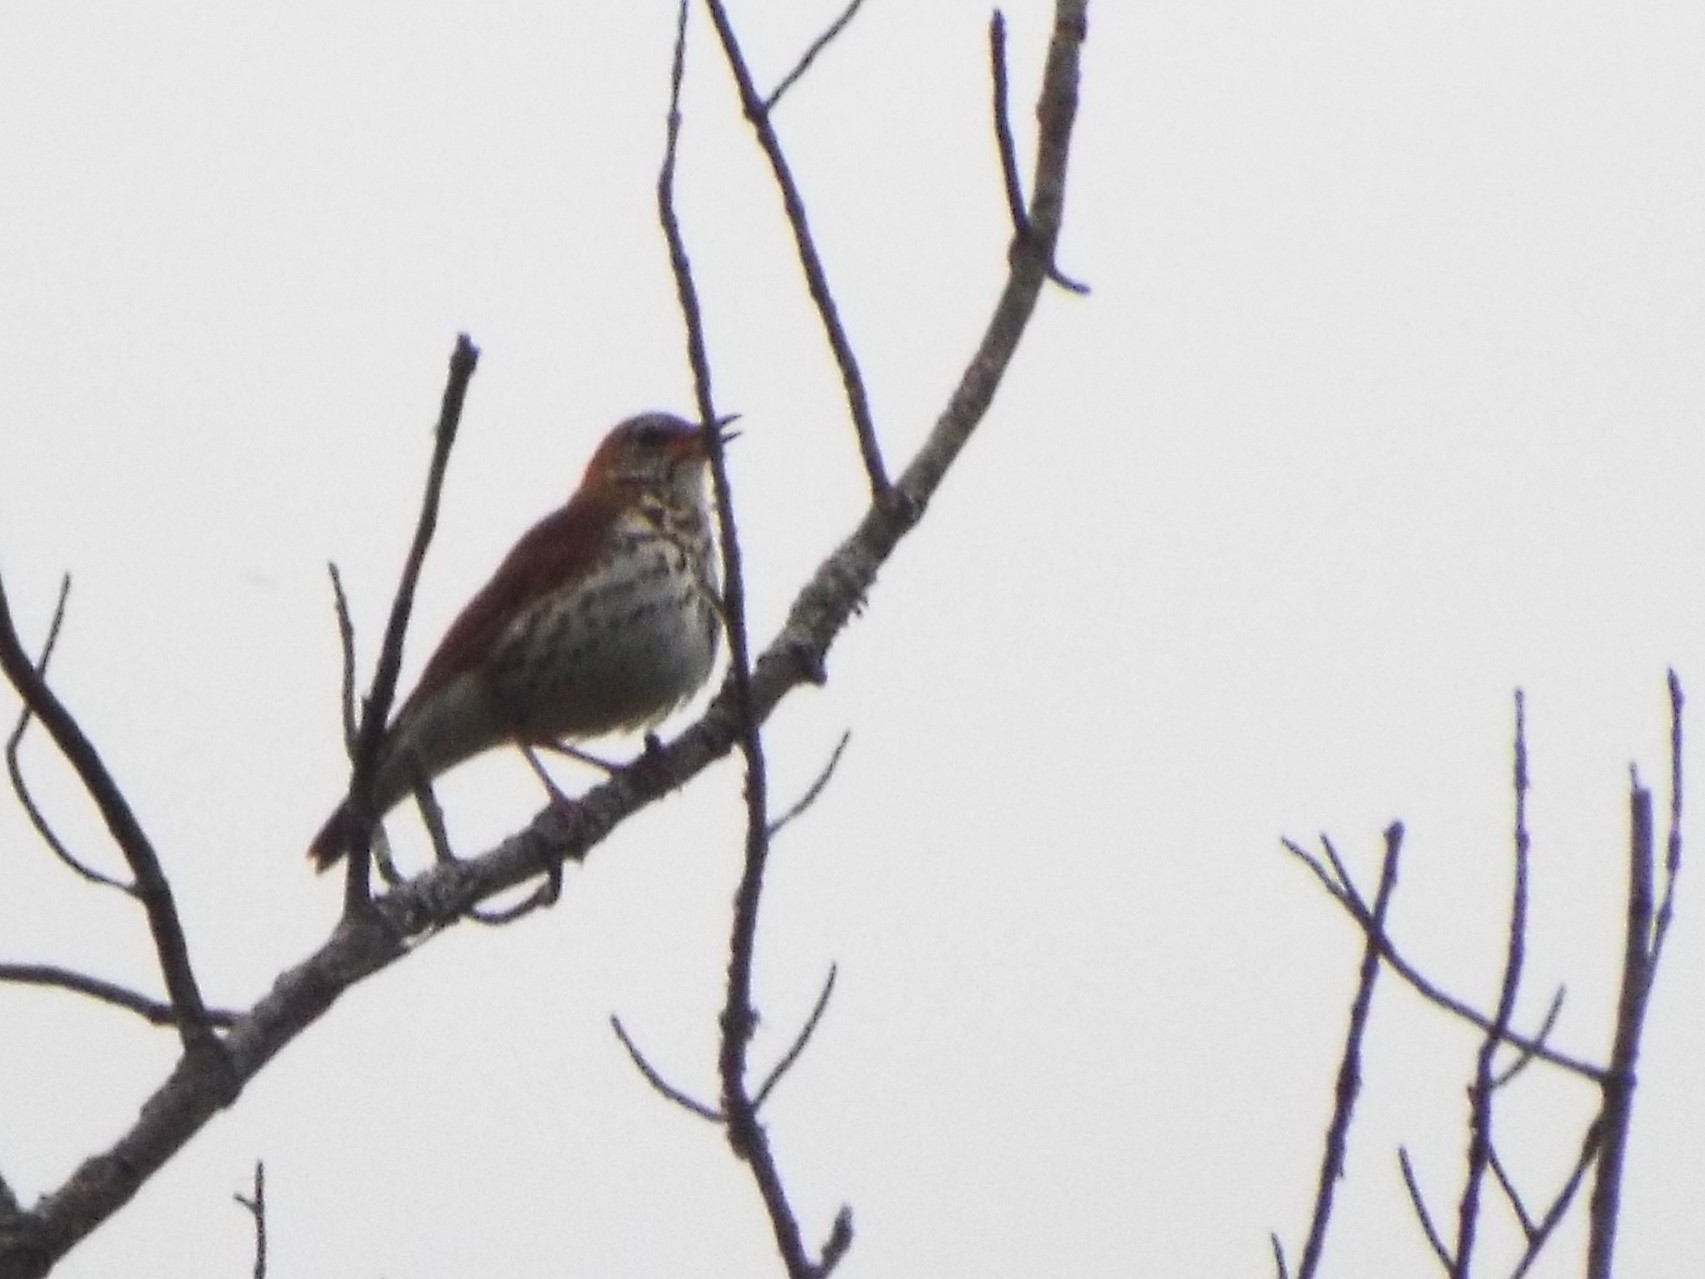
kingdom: Animalia
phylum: Chordata
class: Aves
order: Passeriformes
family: Turdidae
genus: Hylocichla
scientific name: Hylocichla mustelina
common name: Wood thrush
